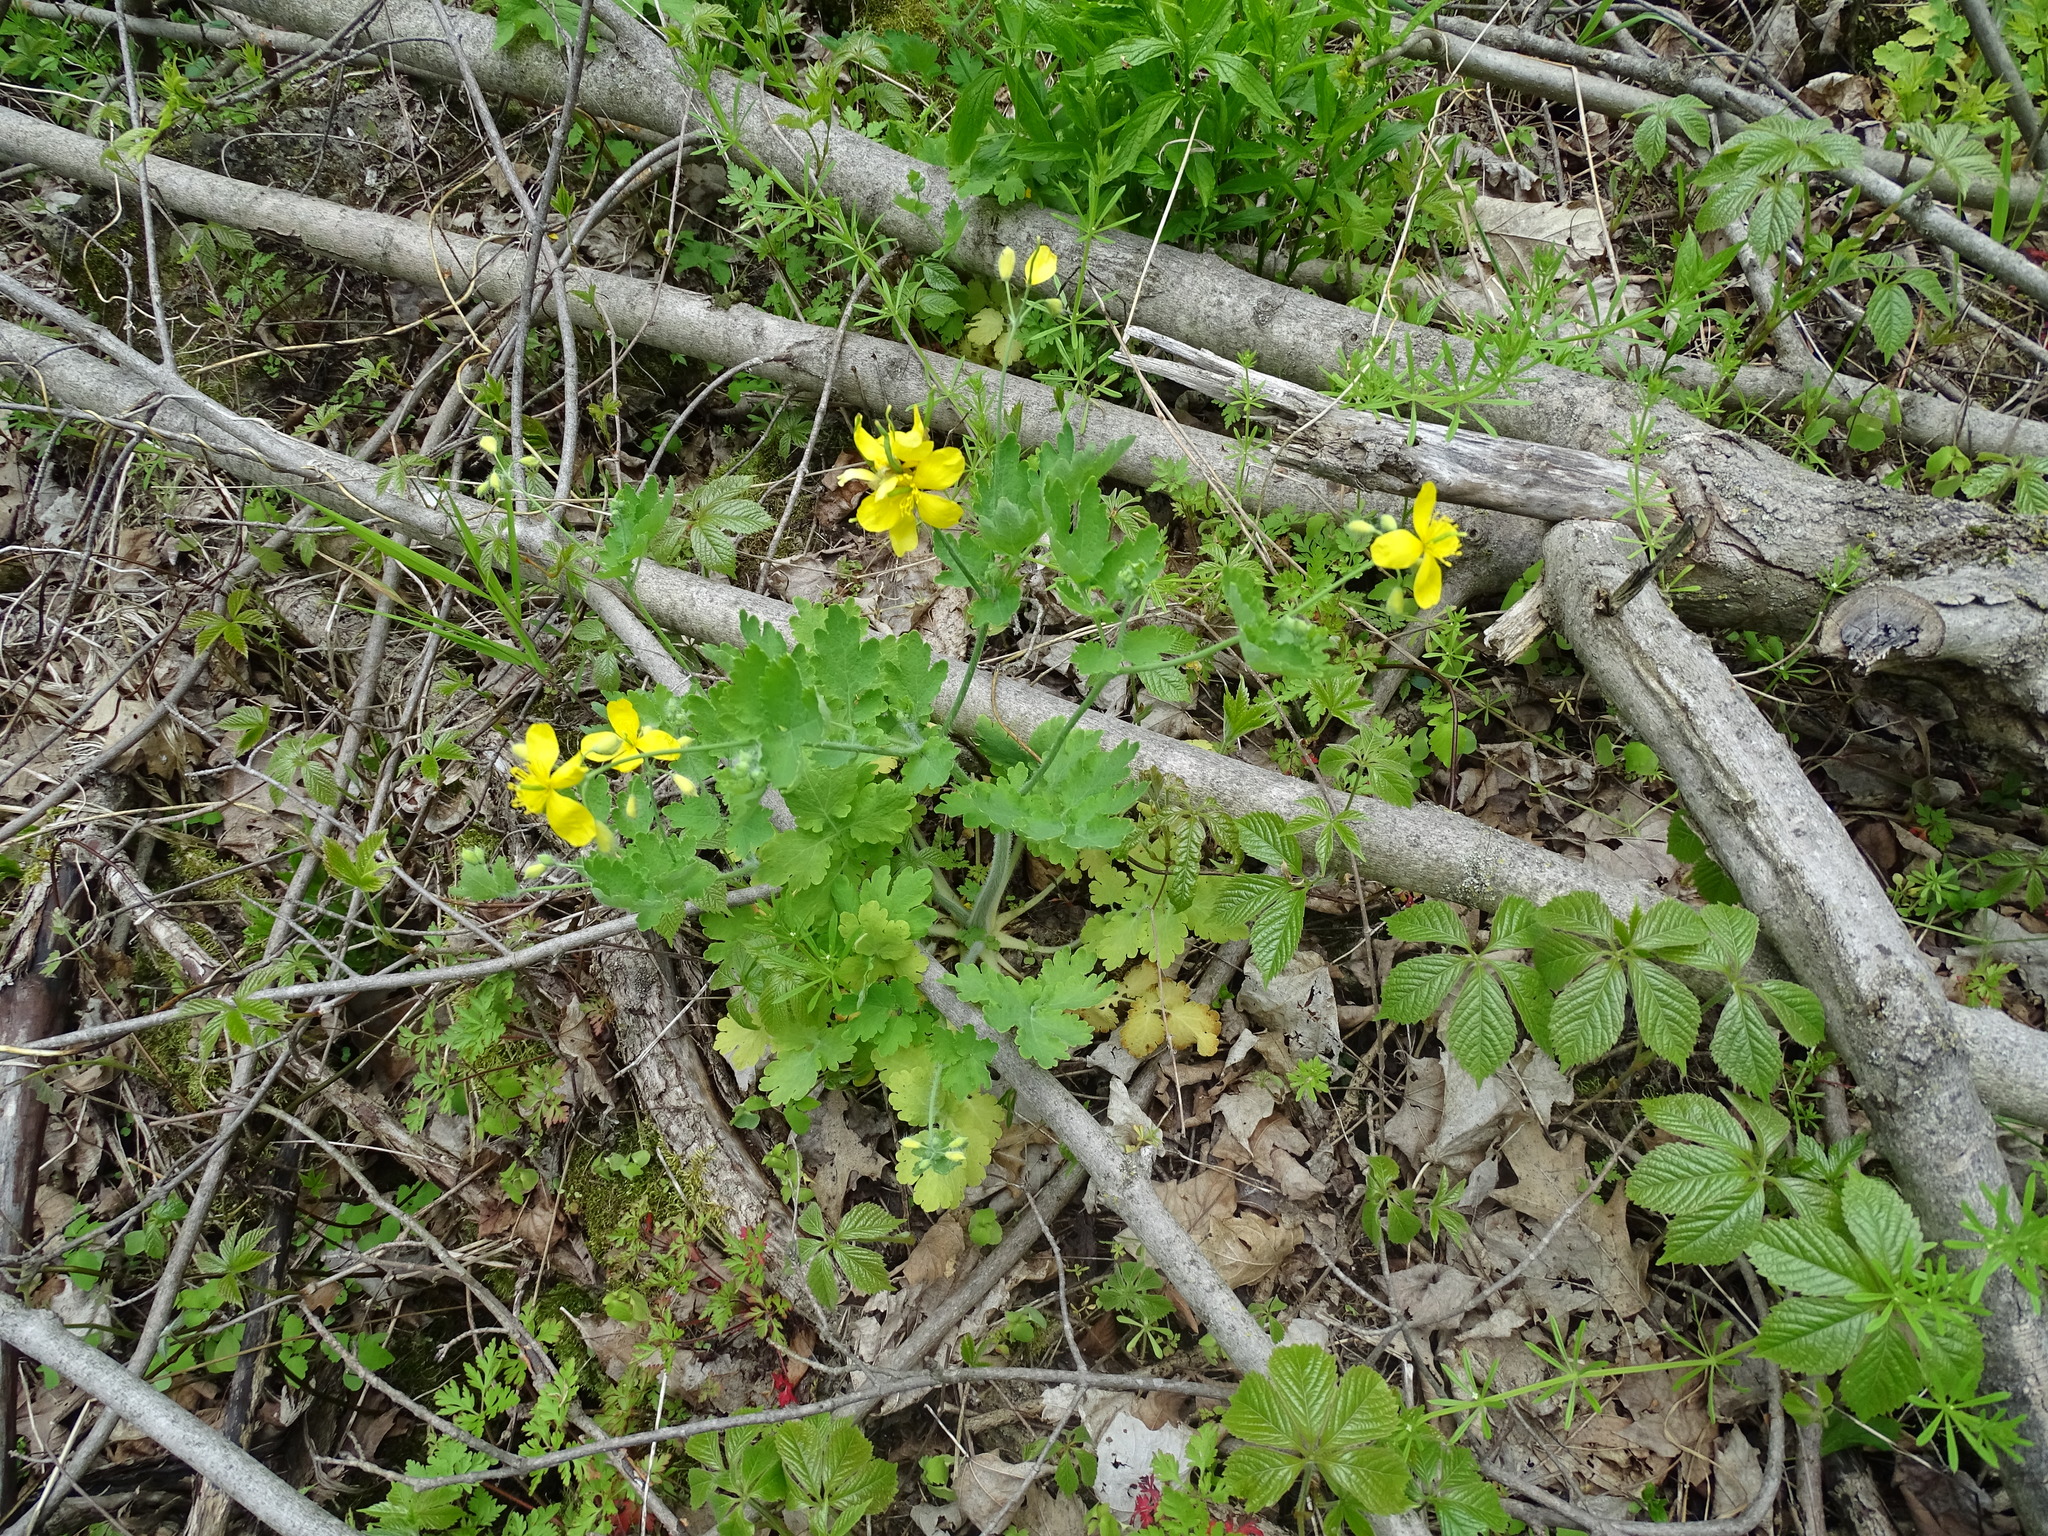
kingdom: Plantae
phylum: Tracheophyta
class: Magnoliopsida
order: Ranunculales
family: Papaveraceae
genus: Chelidonium
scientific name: Chelidonium majus
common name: Greater celandine
